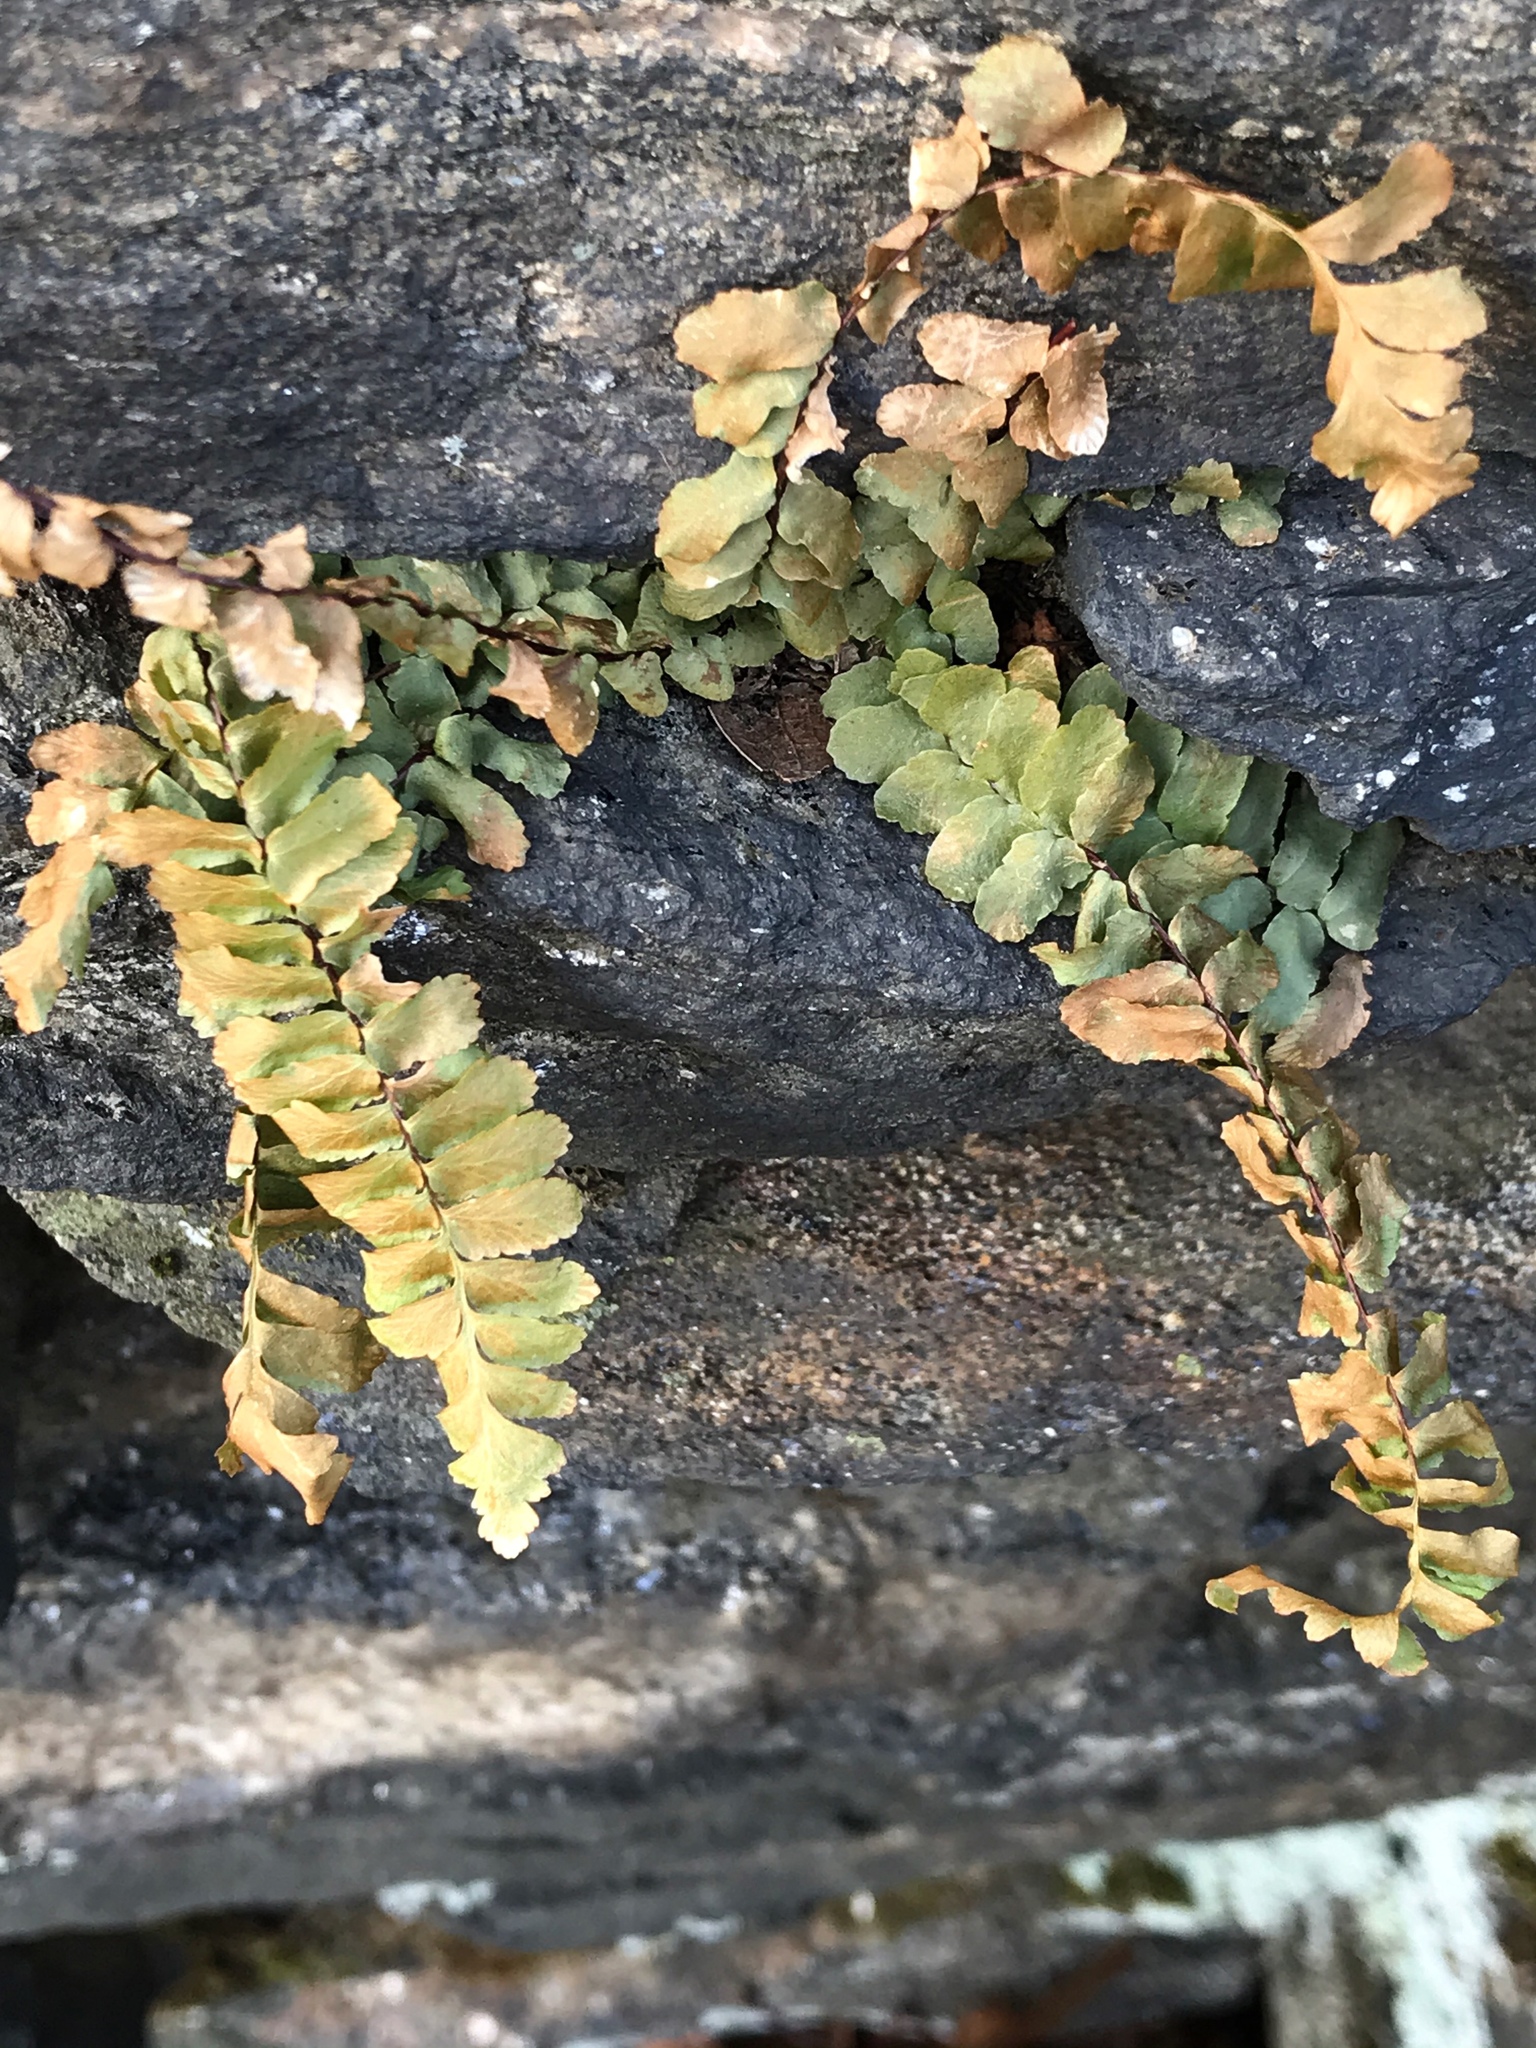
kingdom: Plantae
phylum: Tracheophyta
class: Polypodiopsida
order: Polypodiales
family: Aspleniaceae
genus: Asplenium
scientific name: Asplenium platyneuron
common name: Ebony spleenwort
